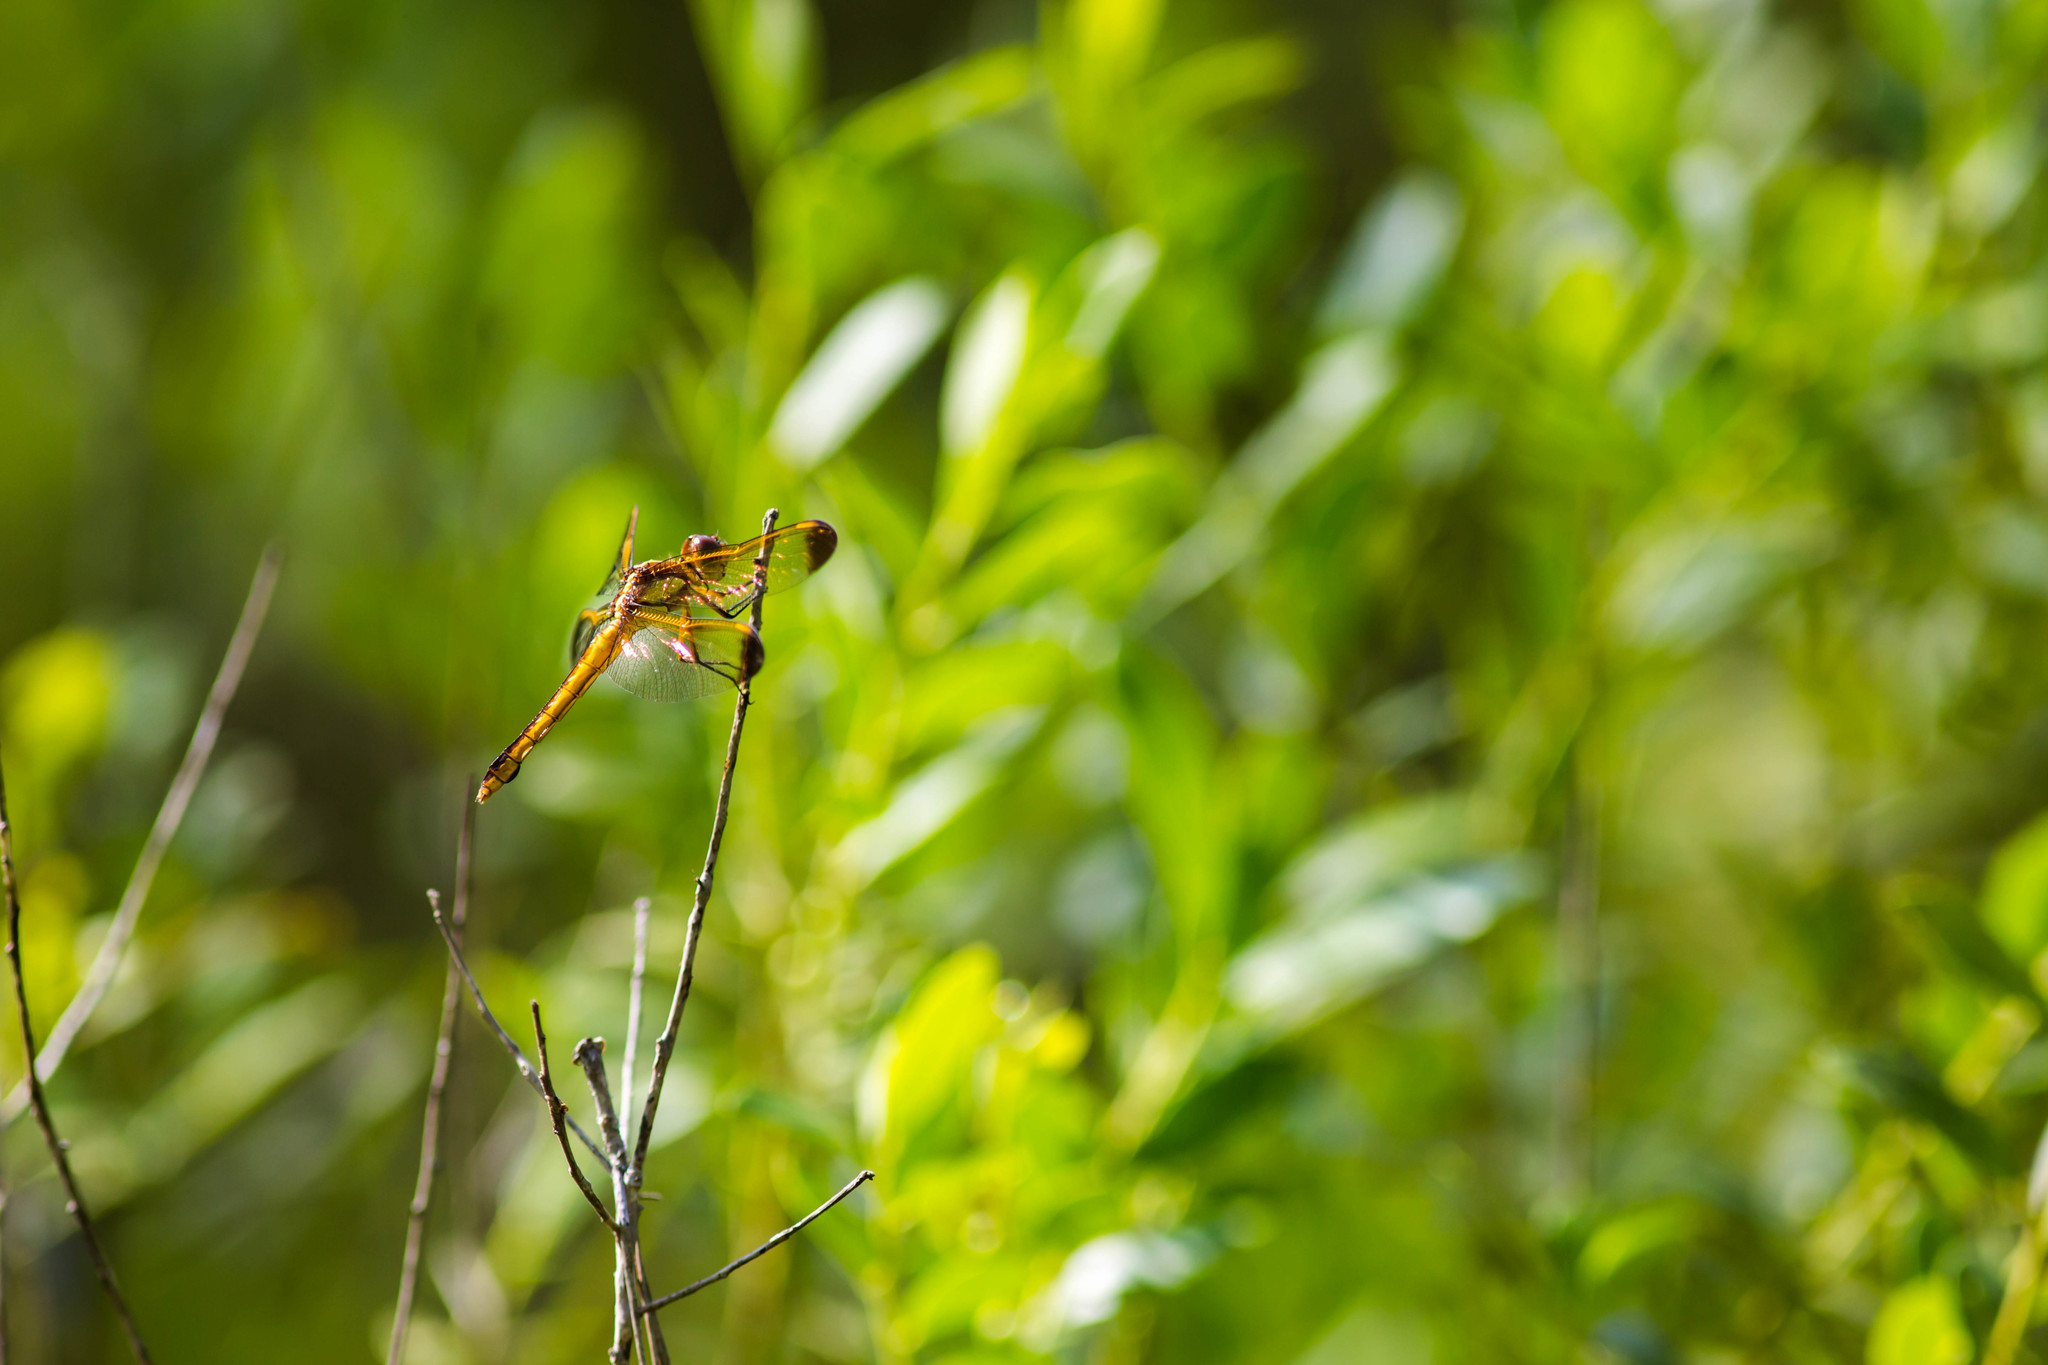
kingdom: Animalia
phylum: Arthropoda
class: Insecta
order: Odonata
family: Libellulidae
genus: Libellula
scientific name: Libellula flavida
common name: Yellow-sided skimmer
